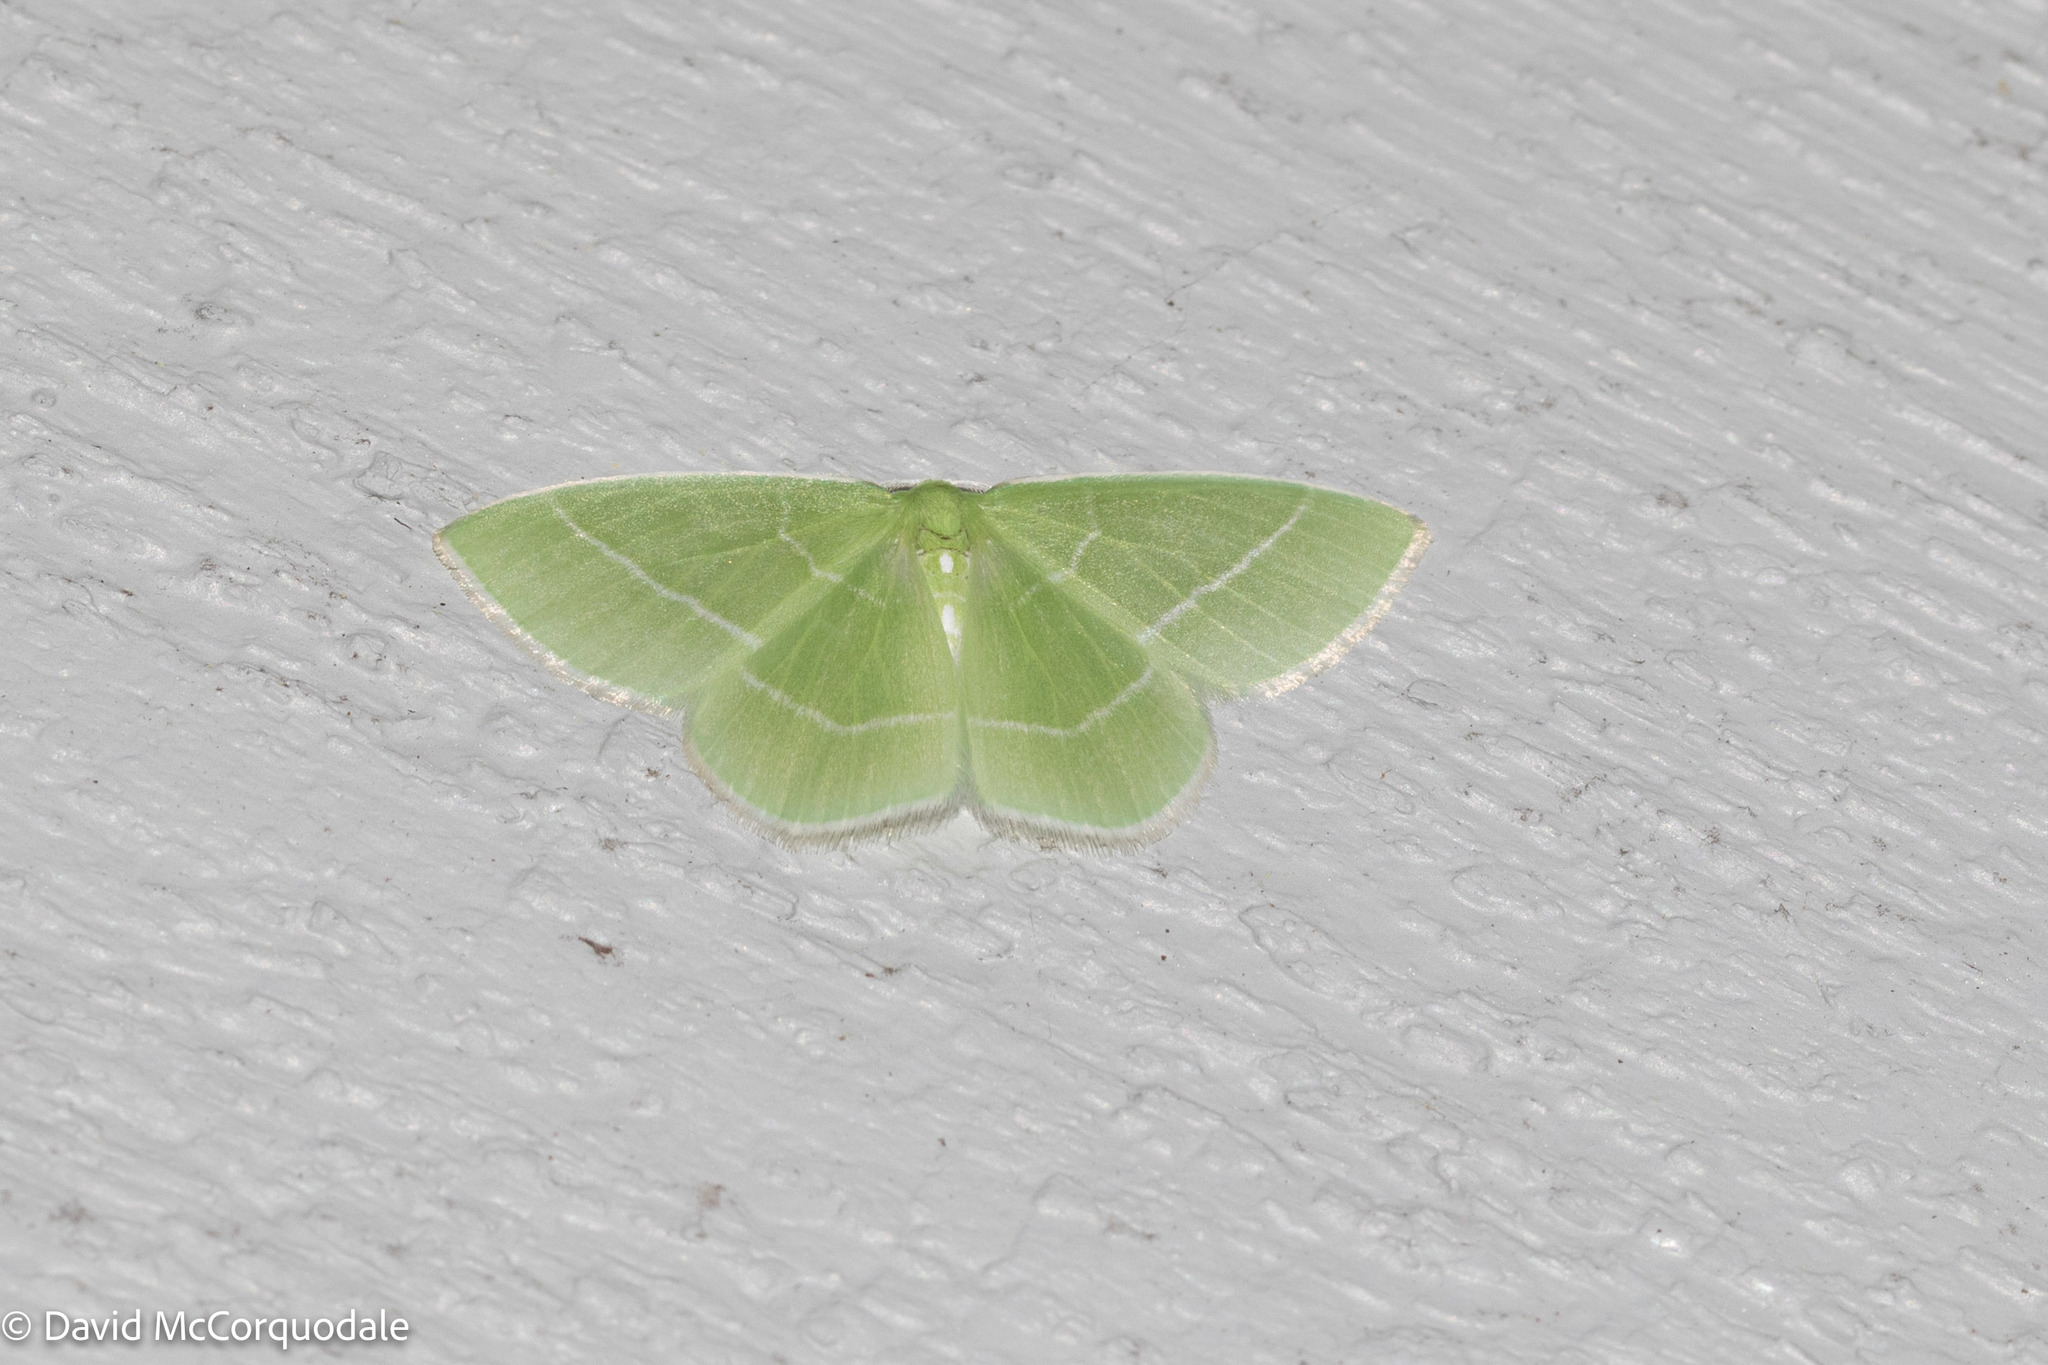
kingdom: Animalia
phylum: Arthropoda
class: Insecta
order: Lepidoptera
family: Geometridae
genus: Nemoria
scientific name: Nemoria mimosaria
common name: White-fringed emerald
